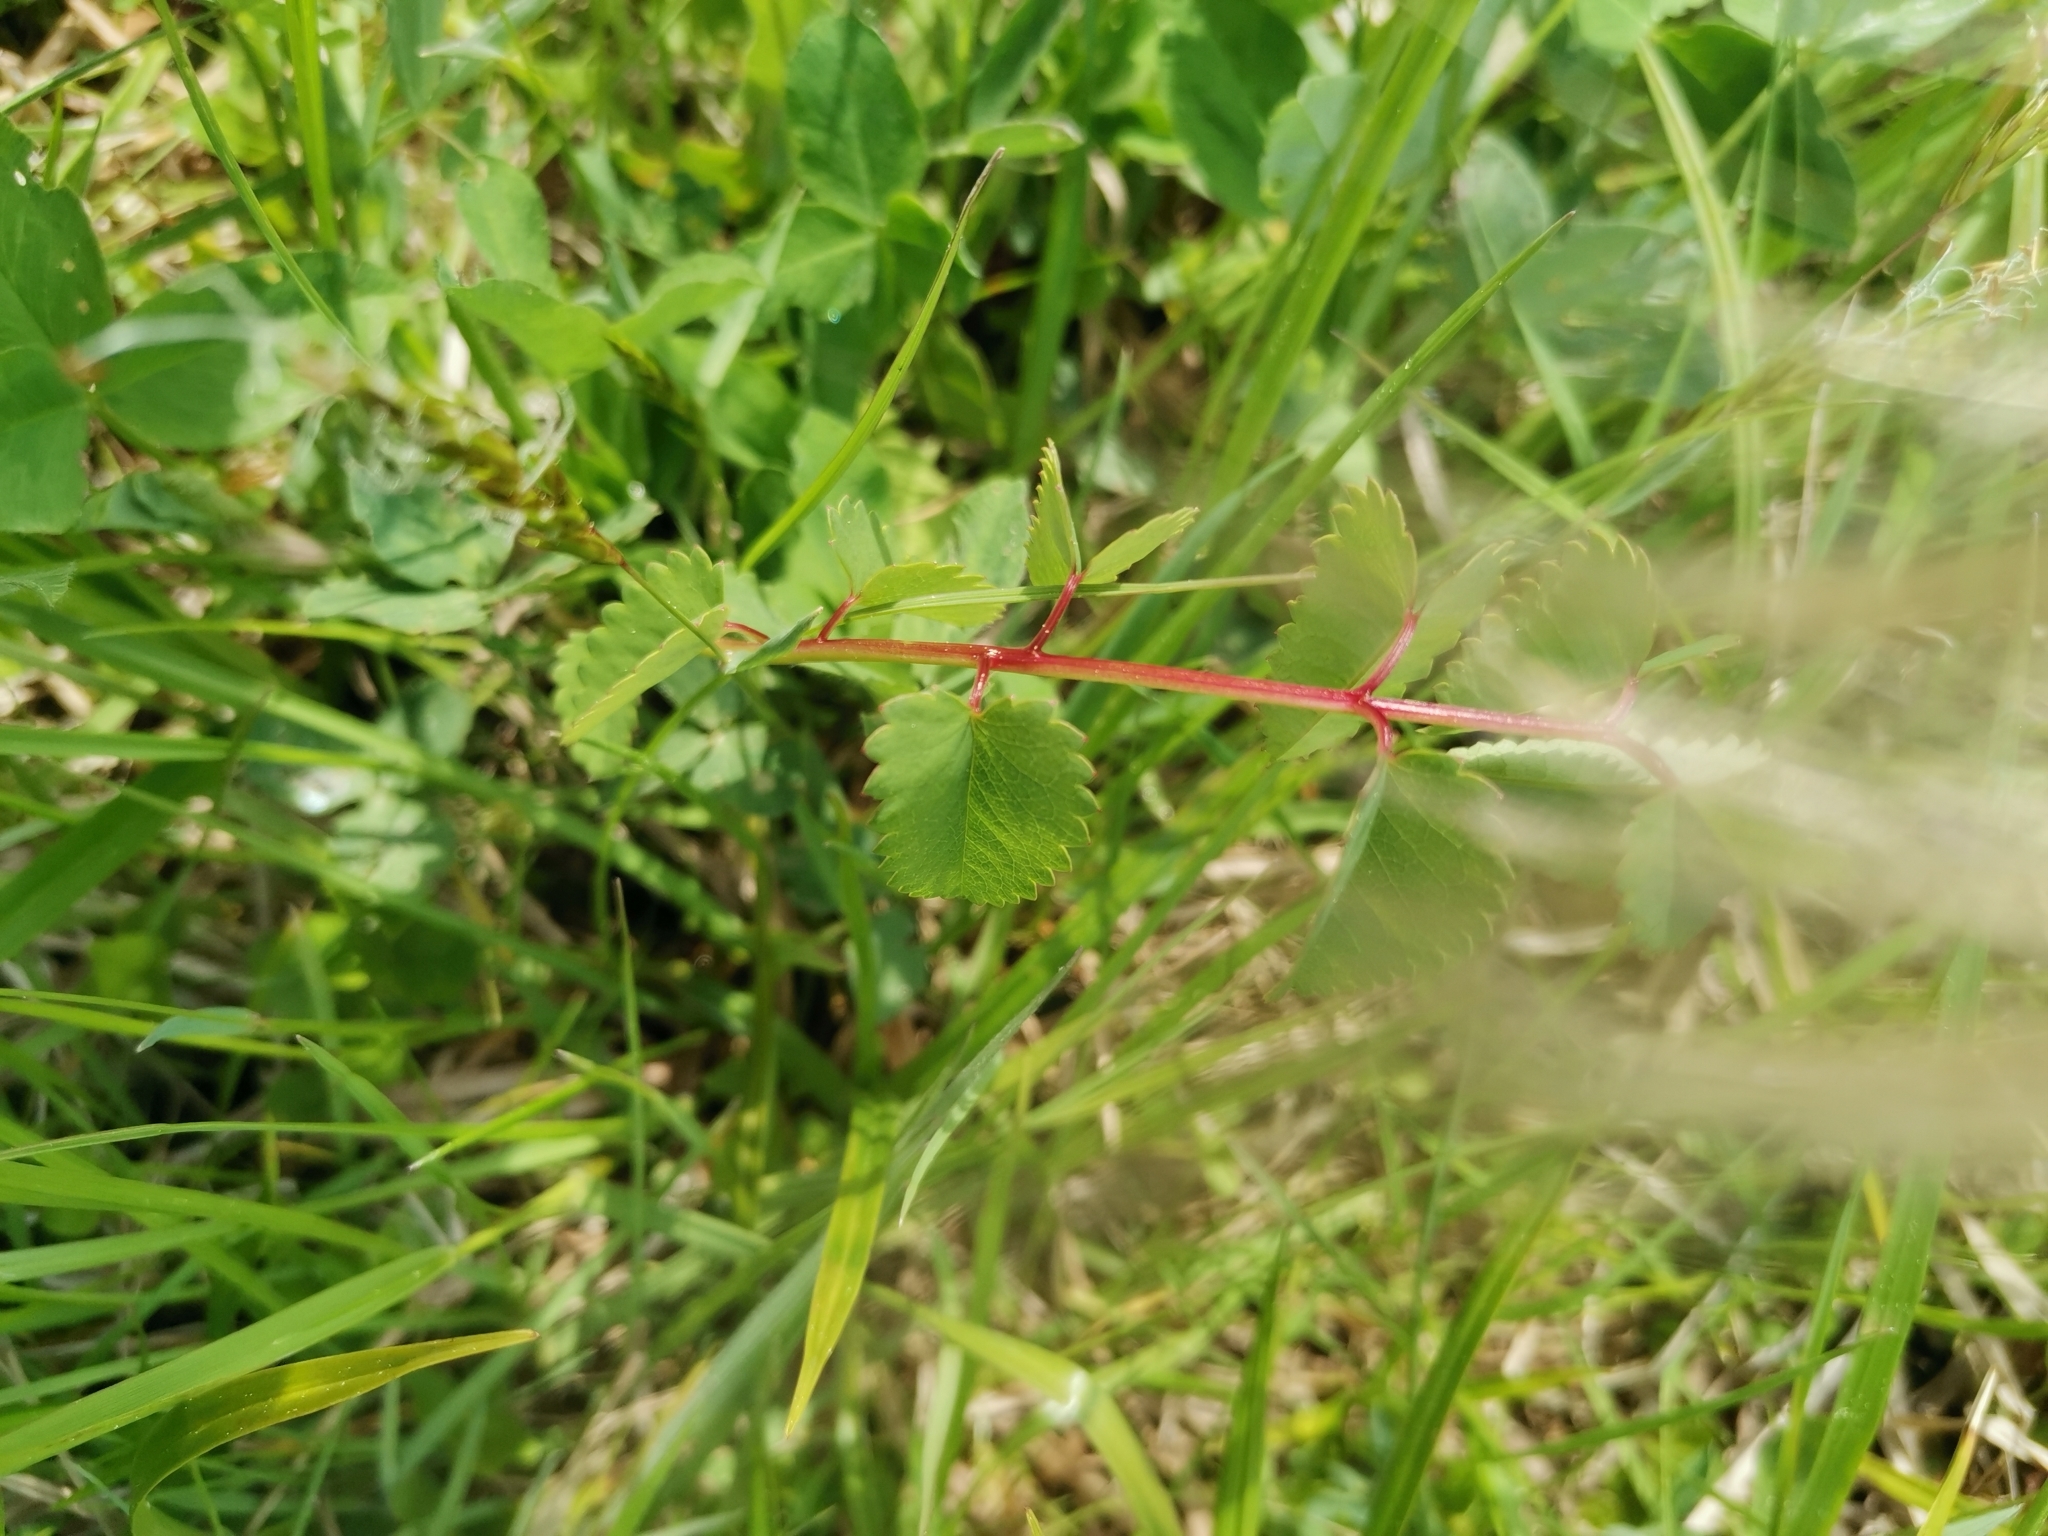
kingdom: Plantae
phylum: Tracheophyta
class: Magnoliopsida
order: Rosales
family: Rosaceae
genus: Sanguisorba
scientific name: Sanguisorba officinalis
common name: Great burnet
